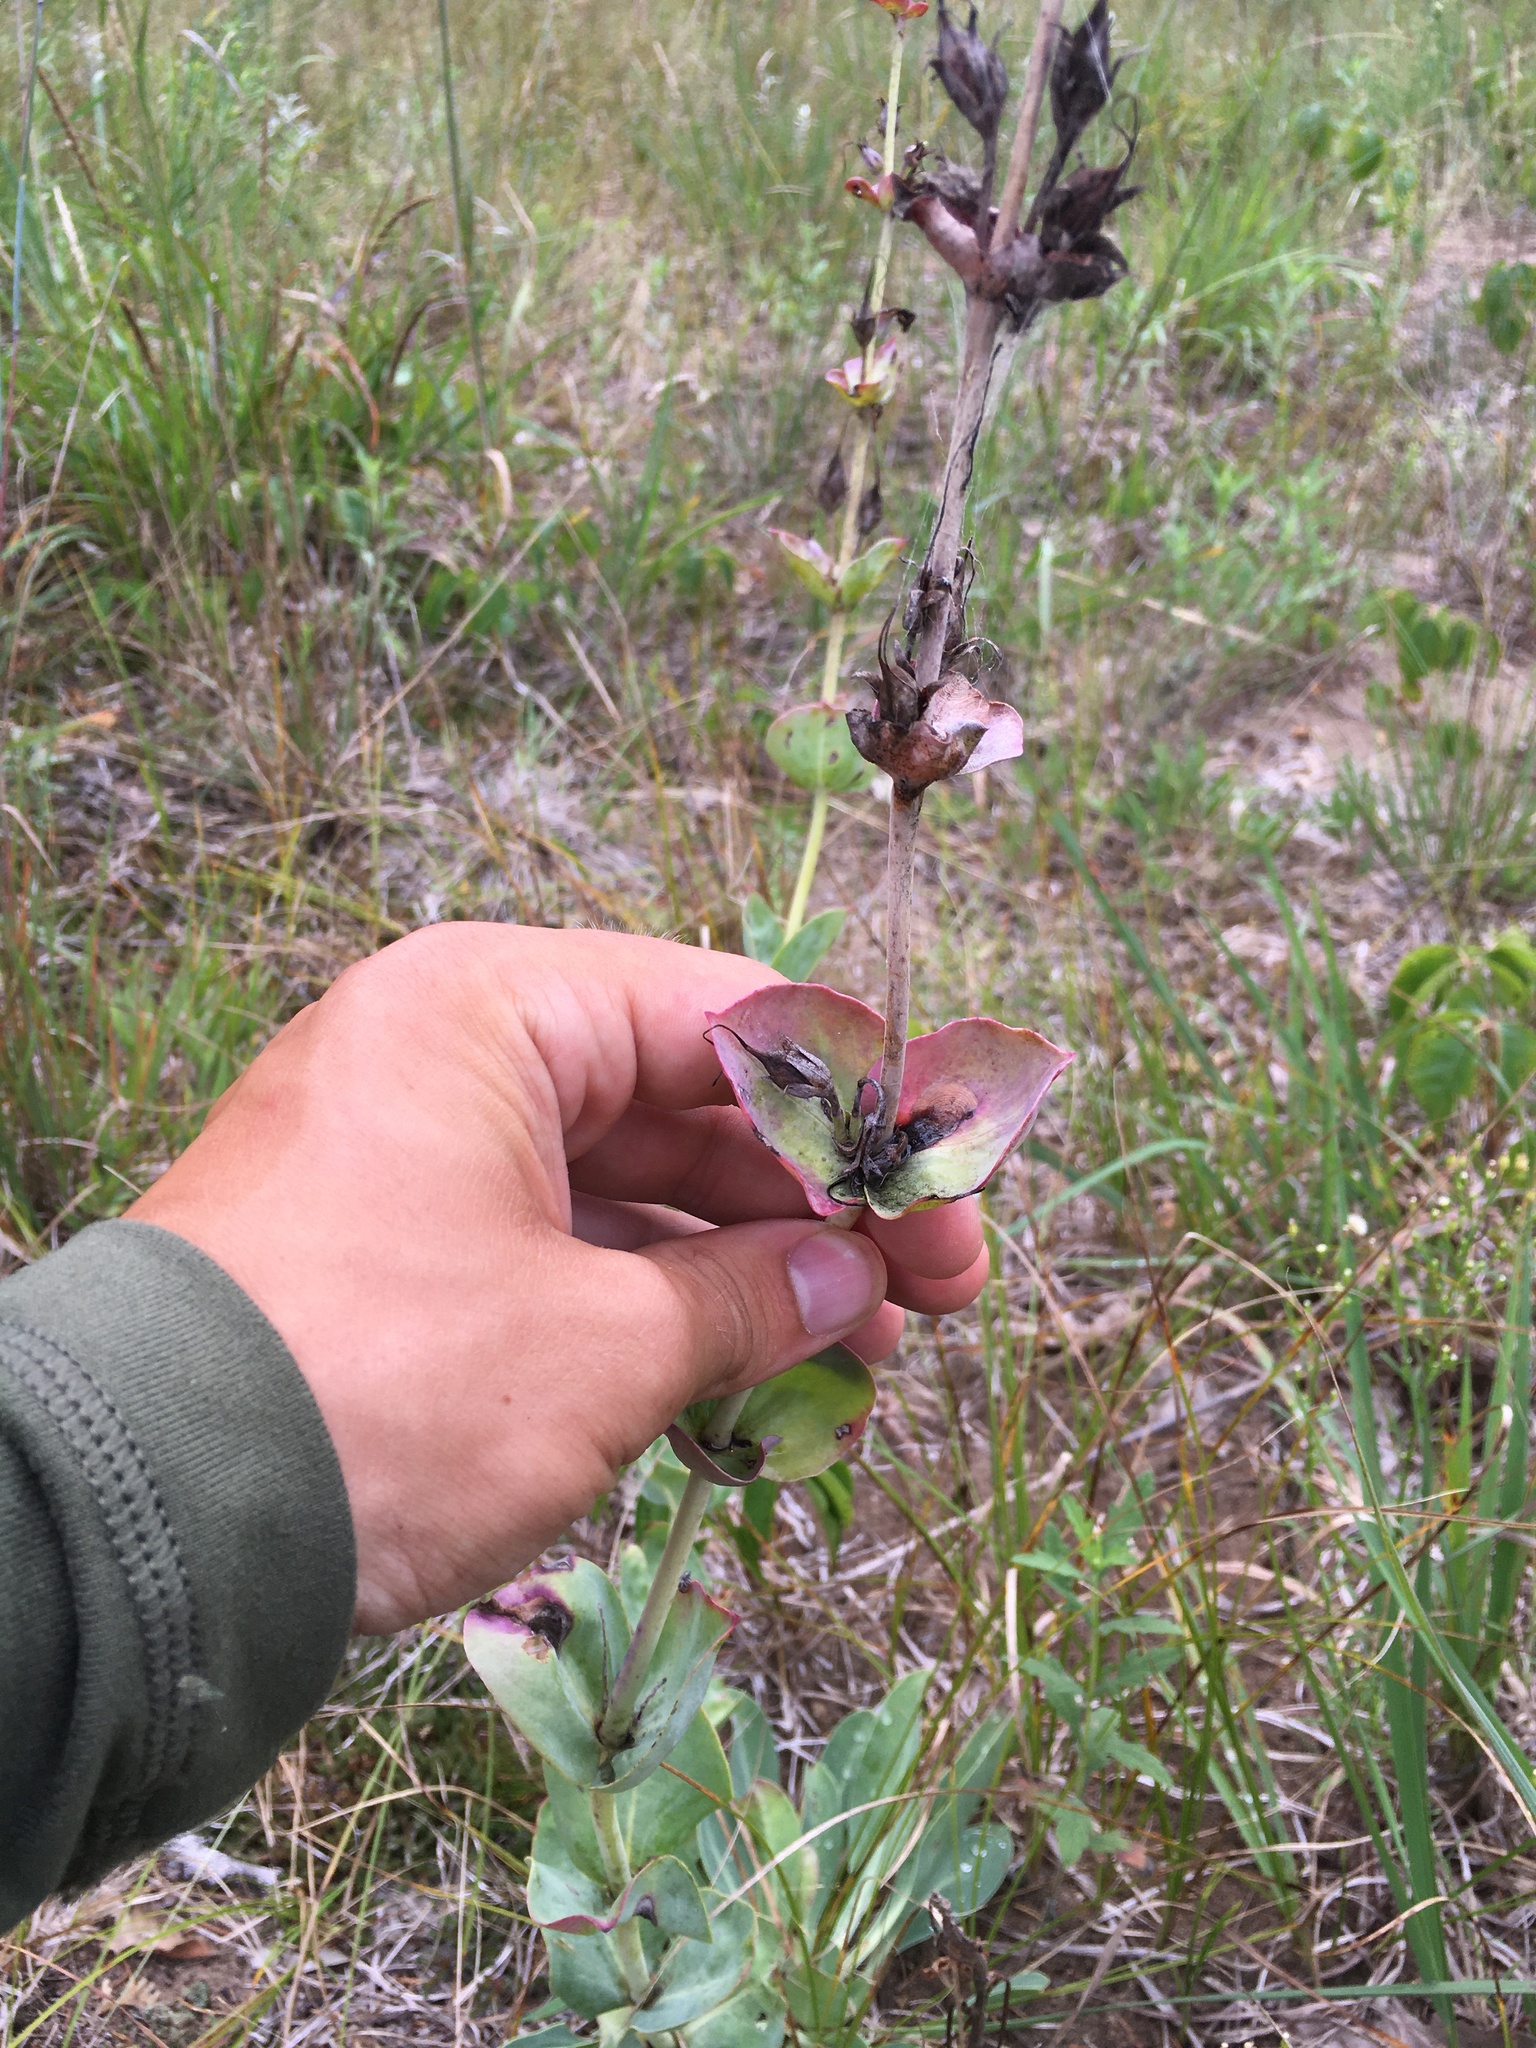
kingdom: Plantae
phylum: Tracheophyta
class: Magnoliopsida
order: Lamiales
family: Plantaginaceae
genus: Penstemon
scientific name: Penstemon
